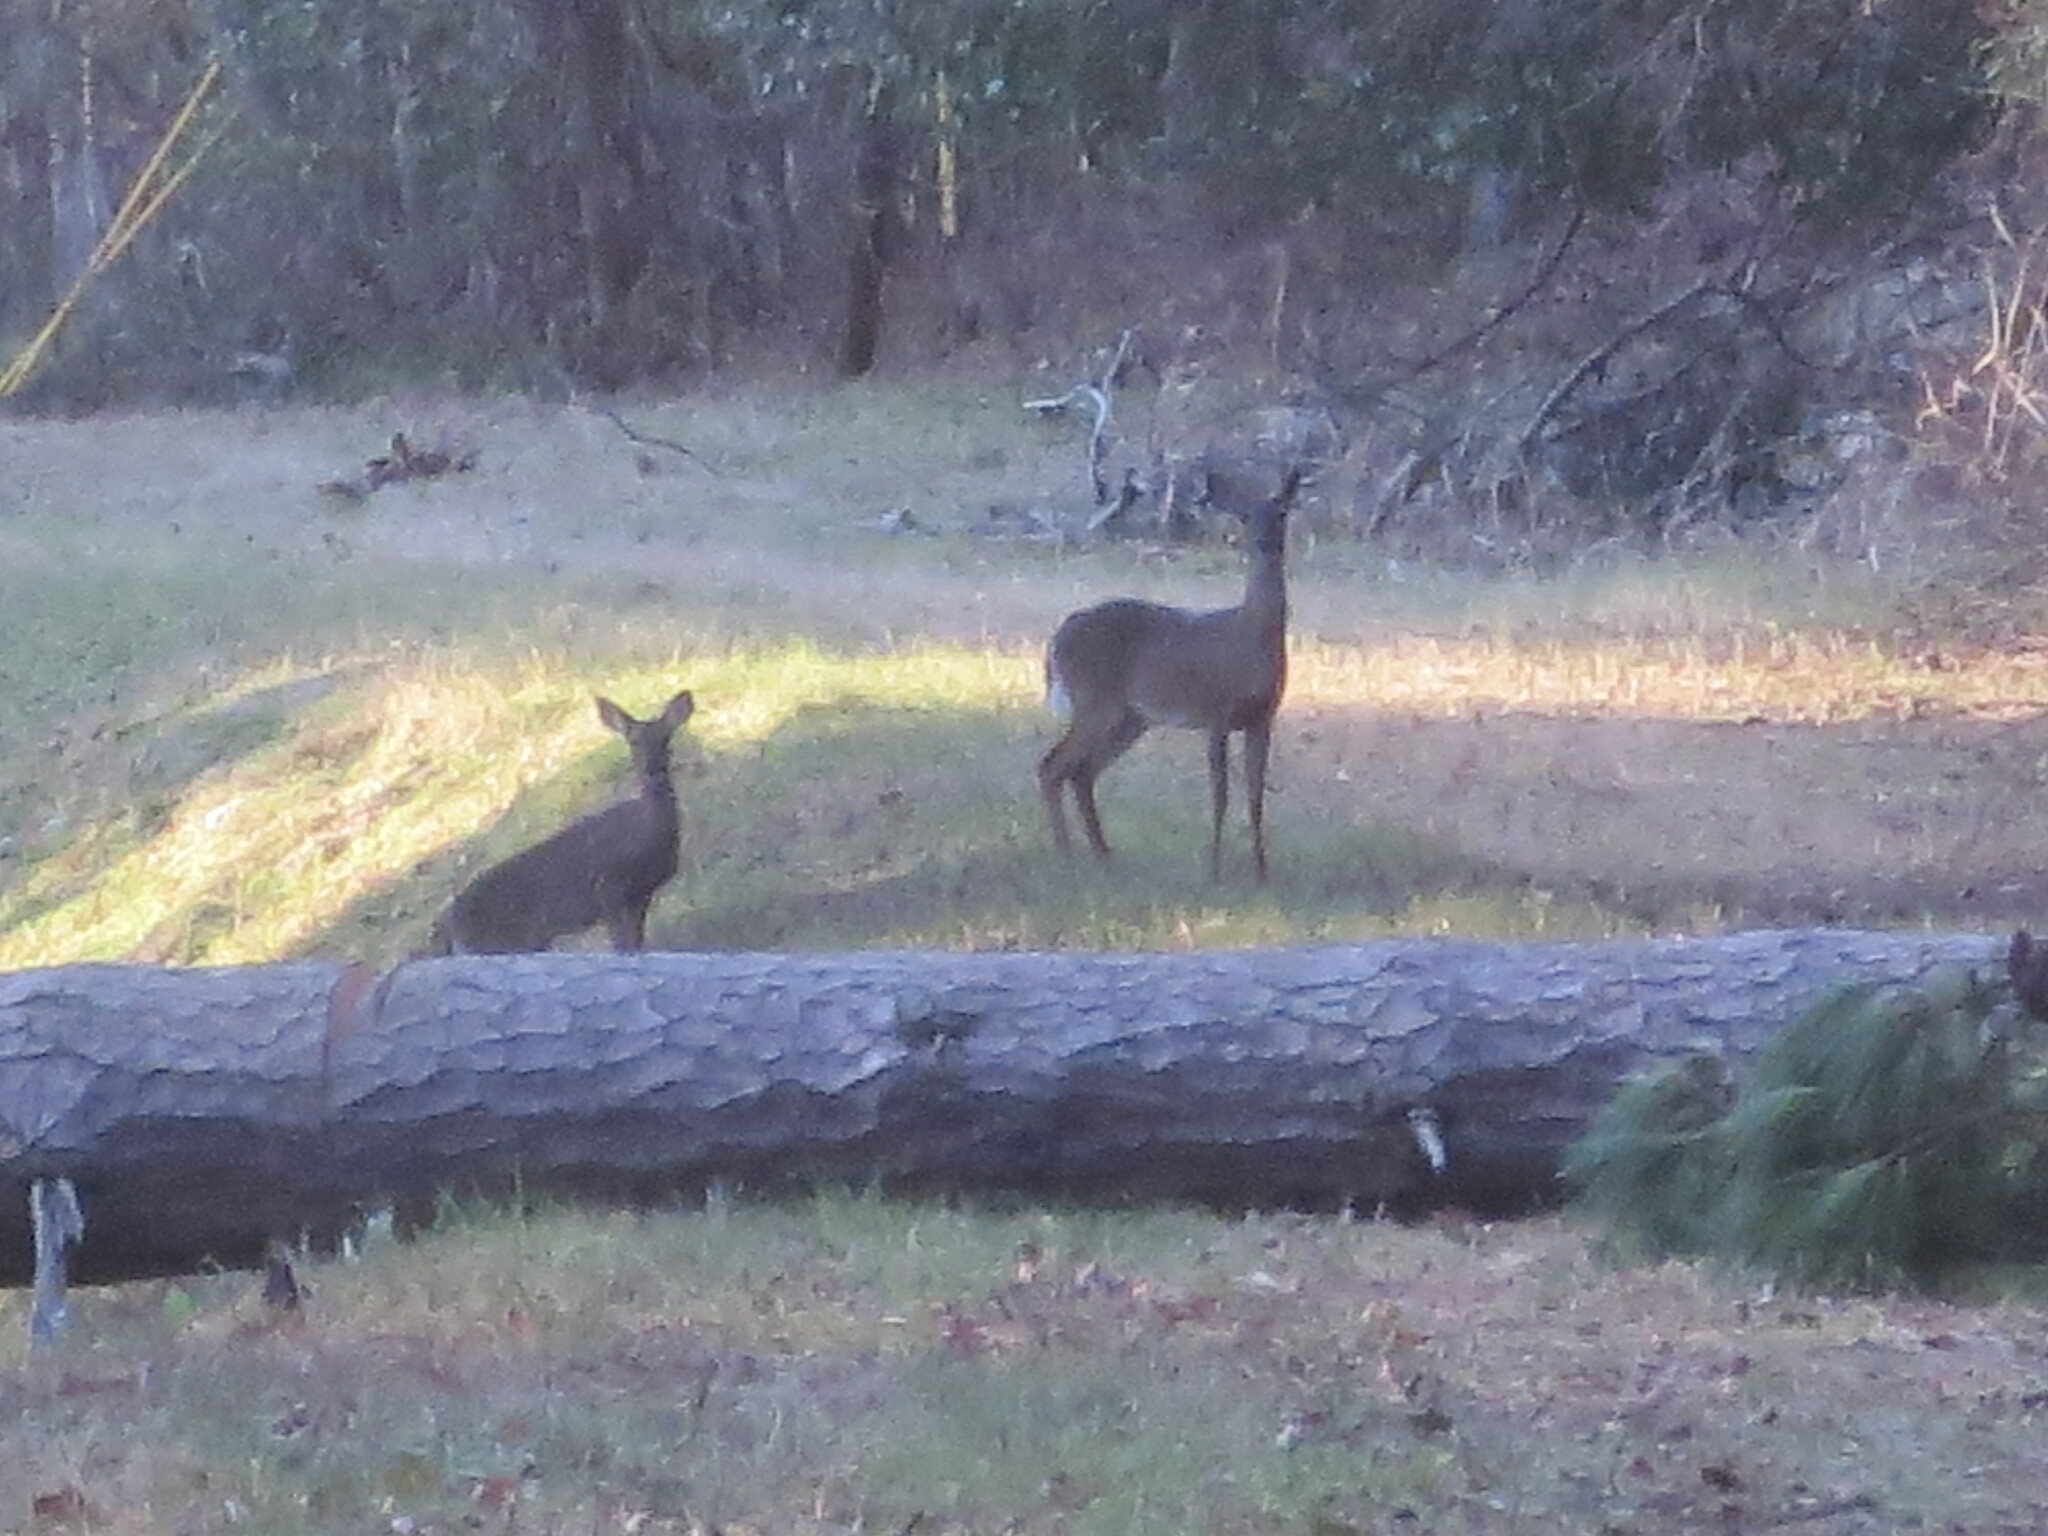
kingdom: Animalia
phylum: Chordata
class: Mammalia
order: Artiodactyla
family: Cervidae
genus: Odocoileus
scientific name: Odocoileus virginianus
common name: White-tailed deer
